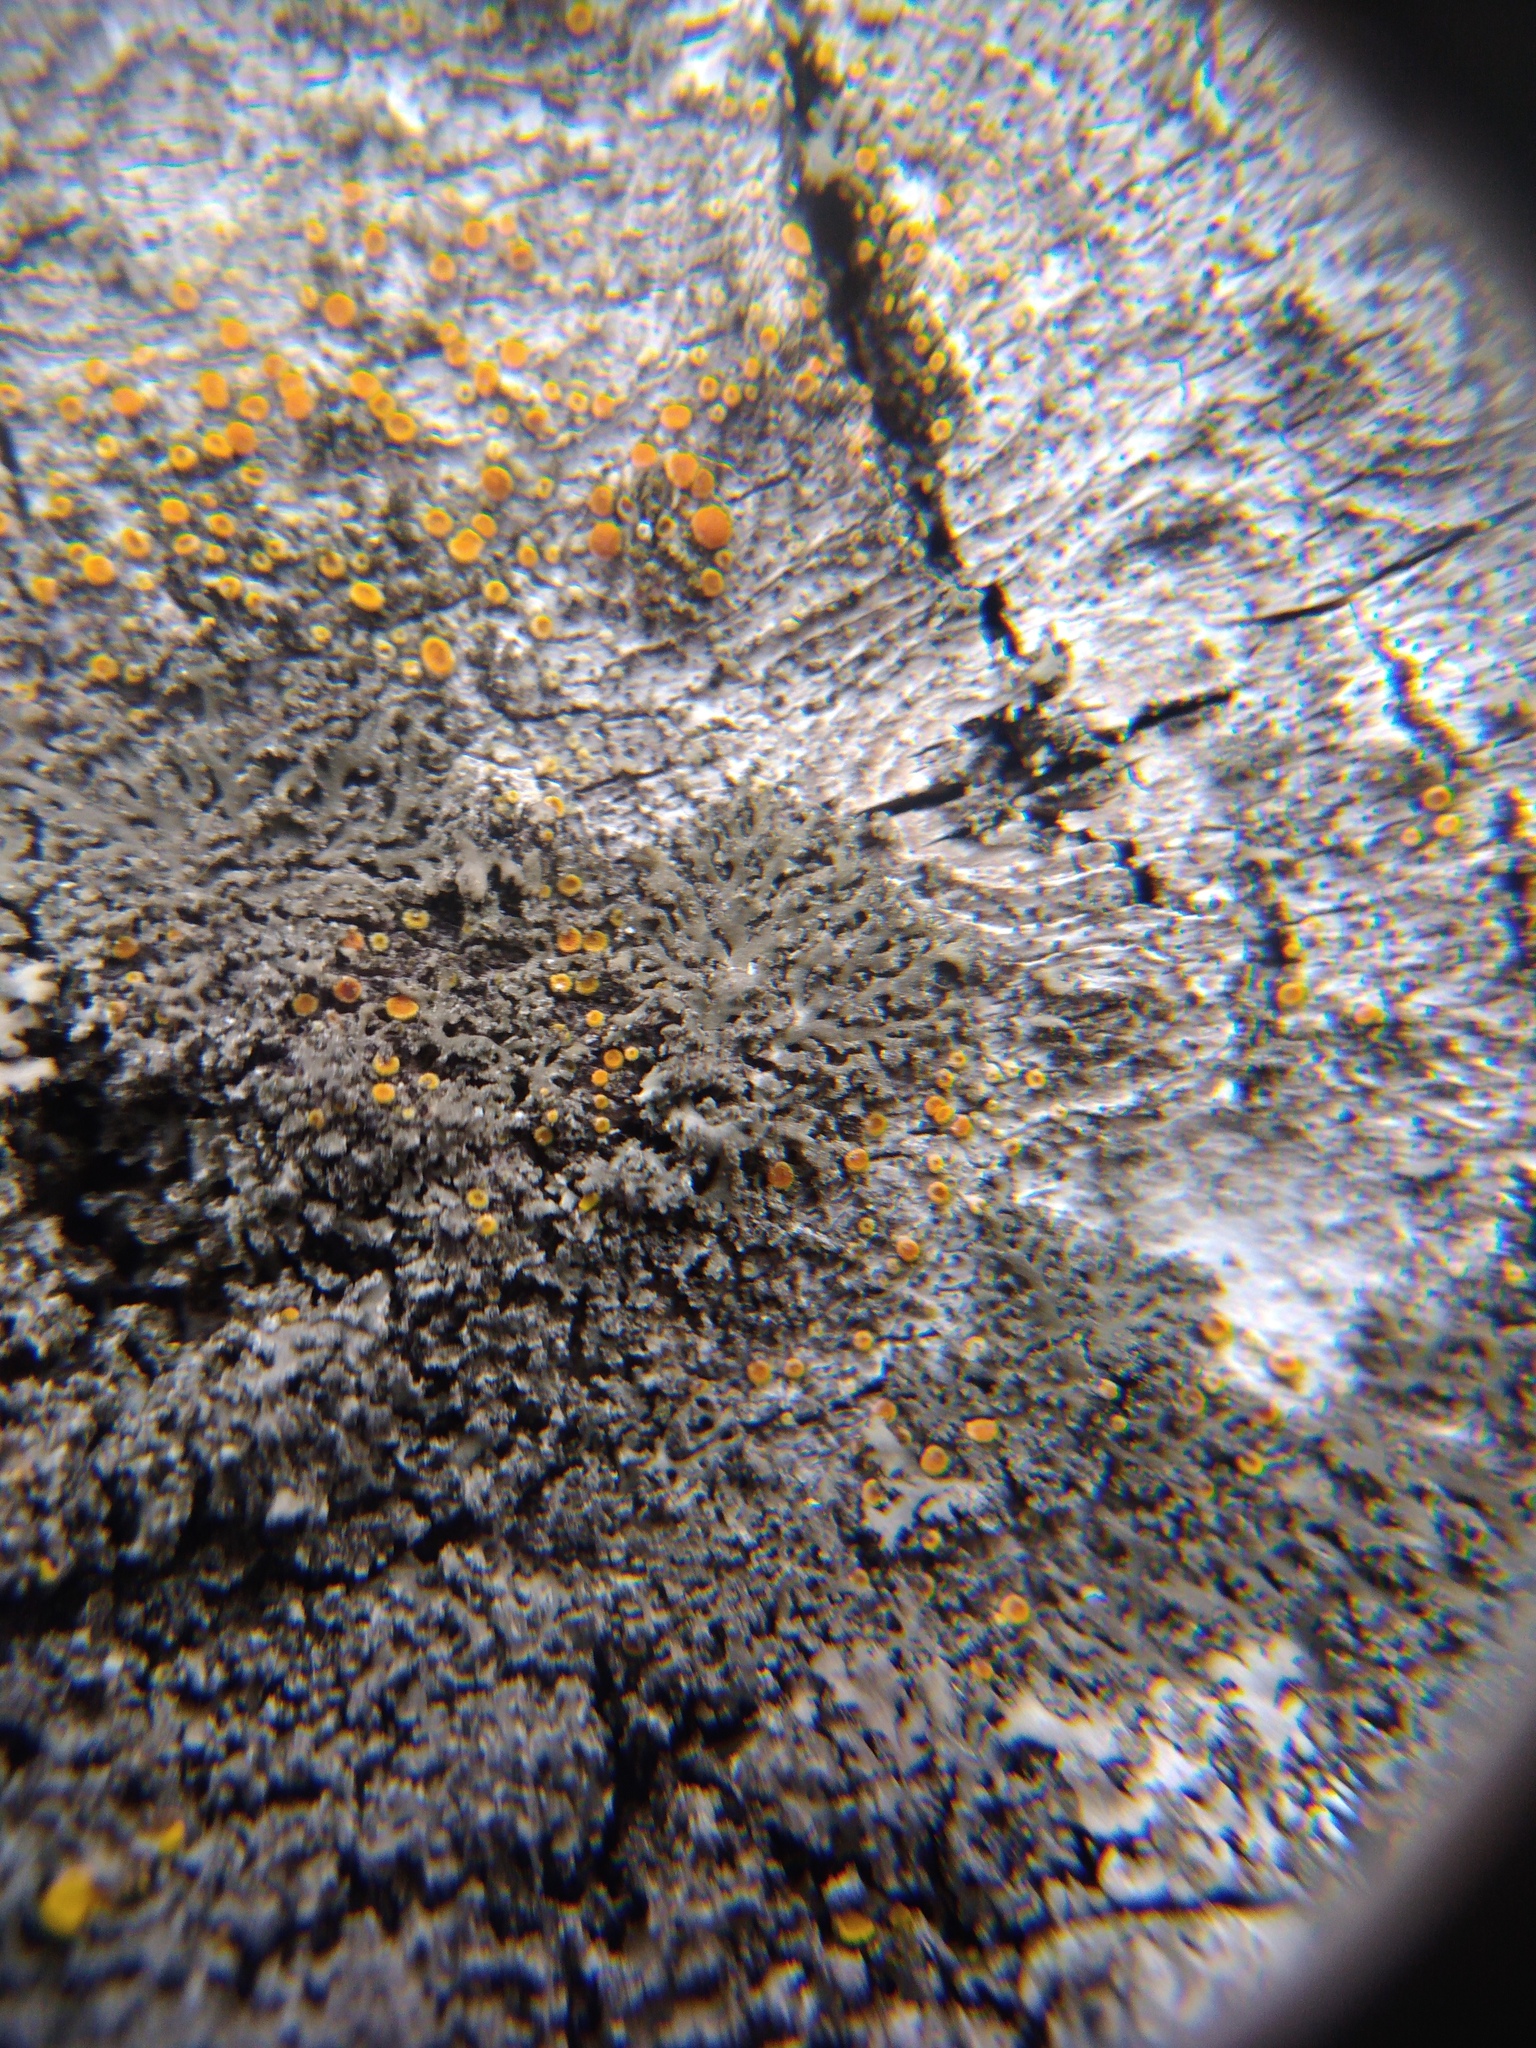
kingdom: Fungi
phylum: Ascomycota
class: Lecanoromycetes
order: Caliciales
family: Physciaceae
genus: Physciella
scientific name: Physciella nigricans
